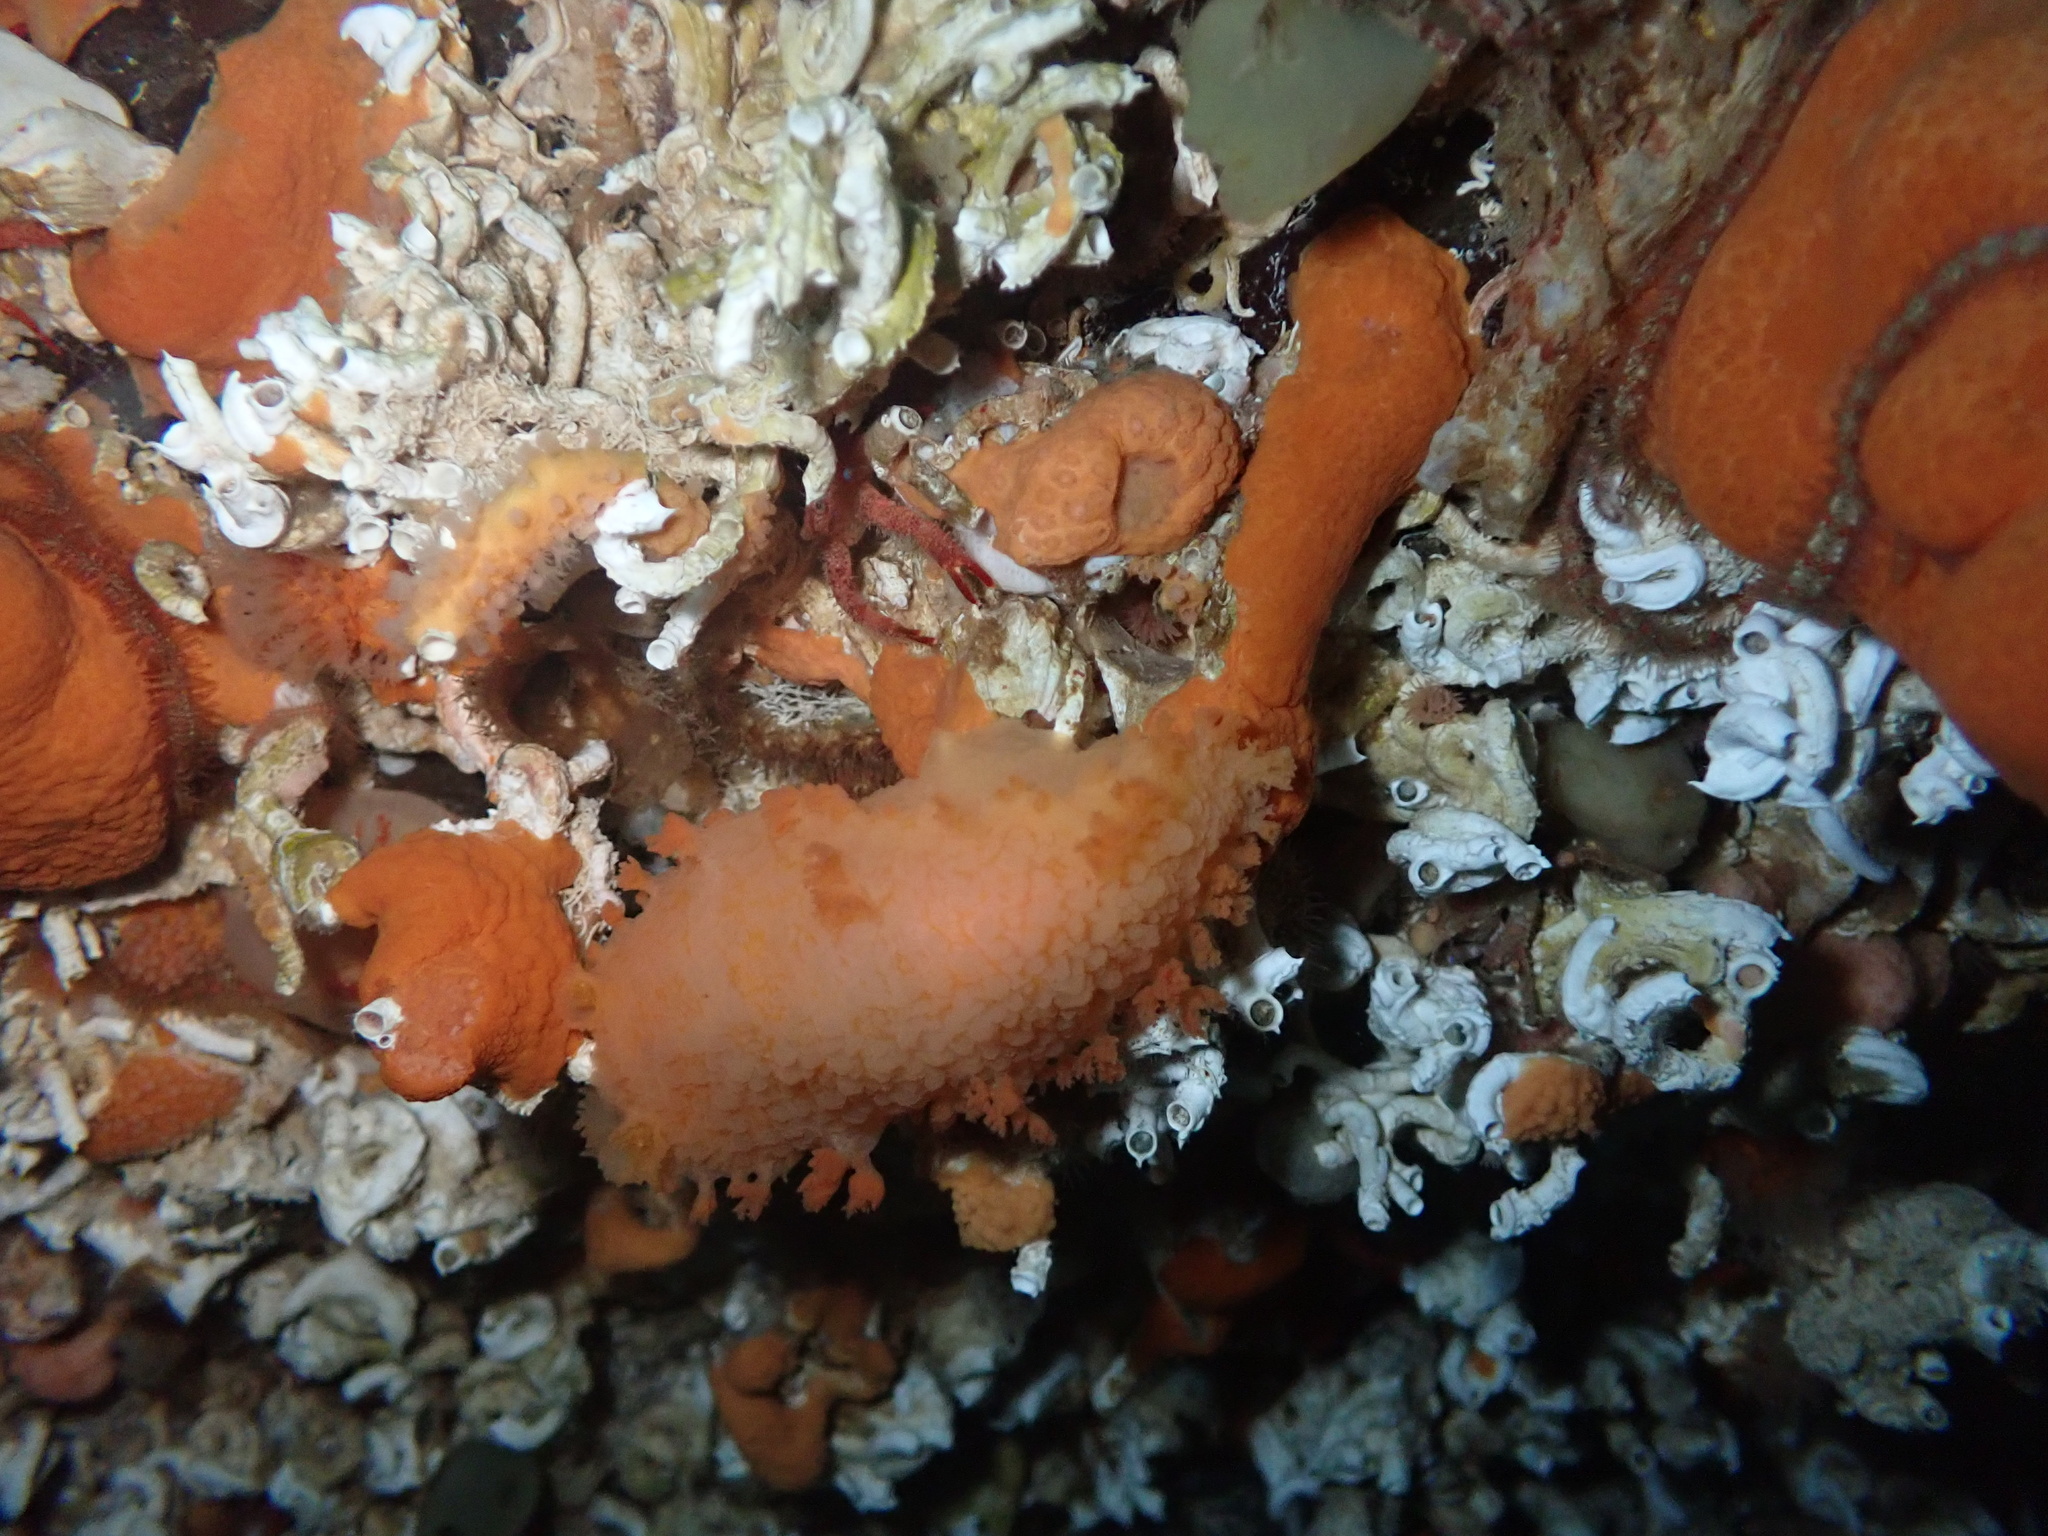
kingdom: Animalia
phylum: Mollusca
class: Gastropoda
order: Nudibranchia
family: Tritoniidae
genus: Tritonia
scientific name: Tritonia hombergii
